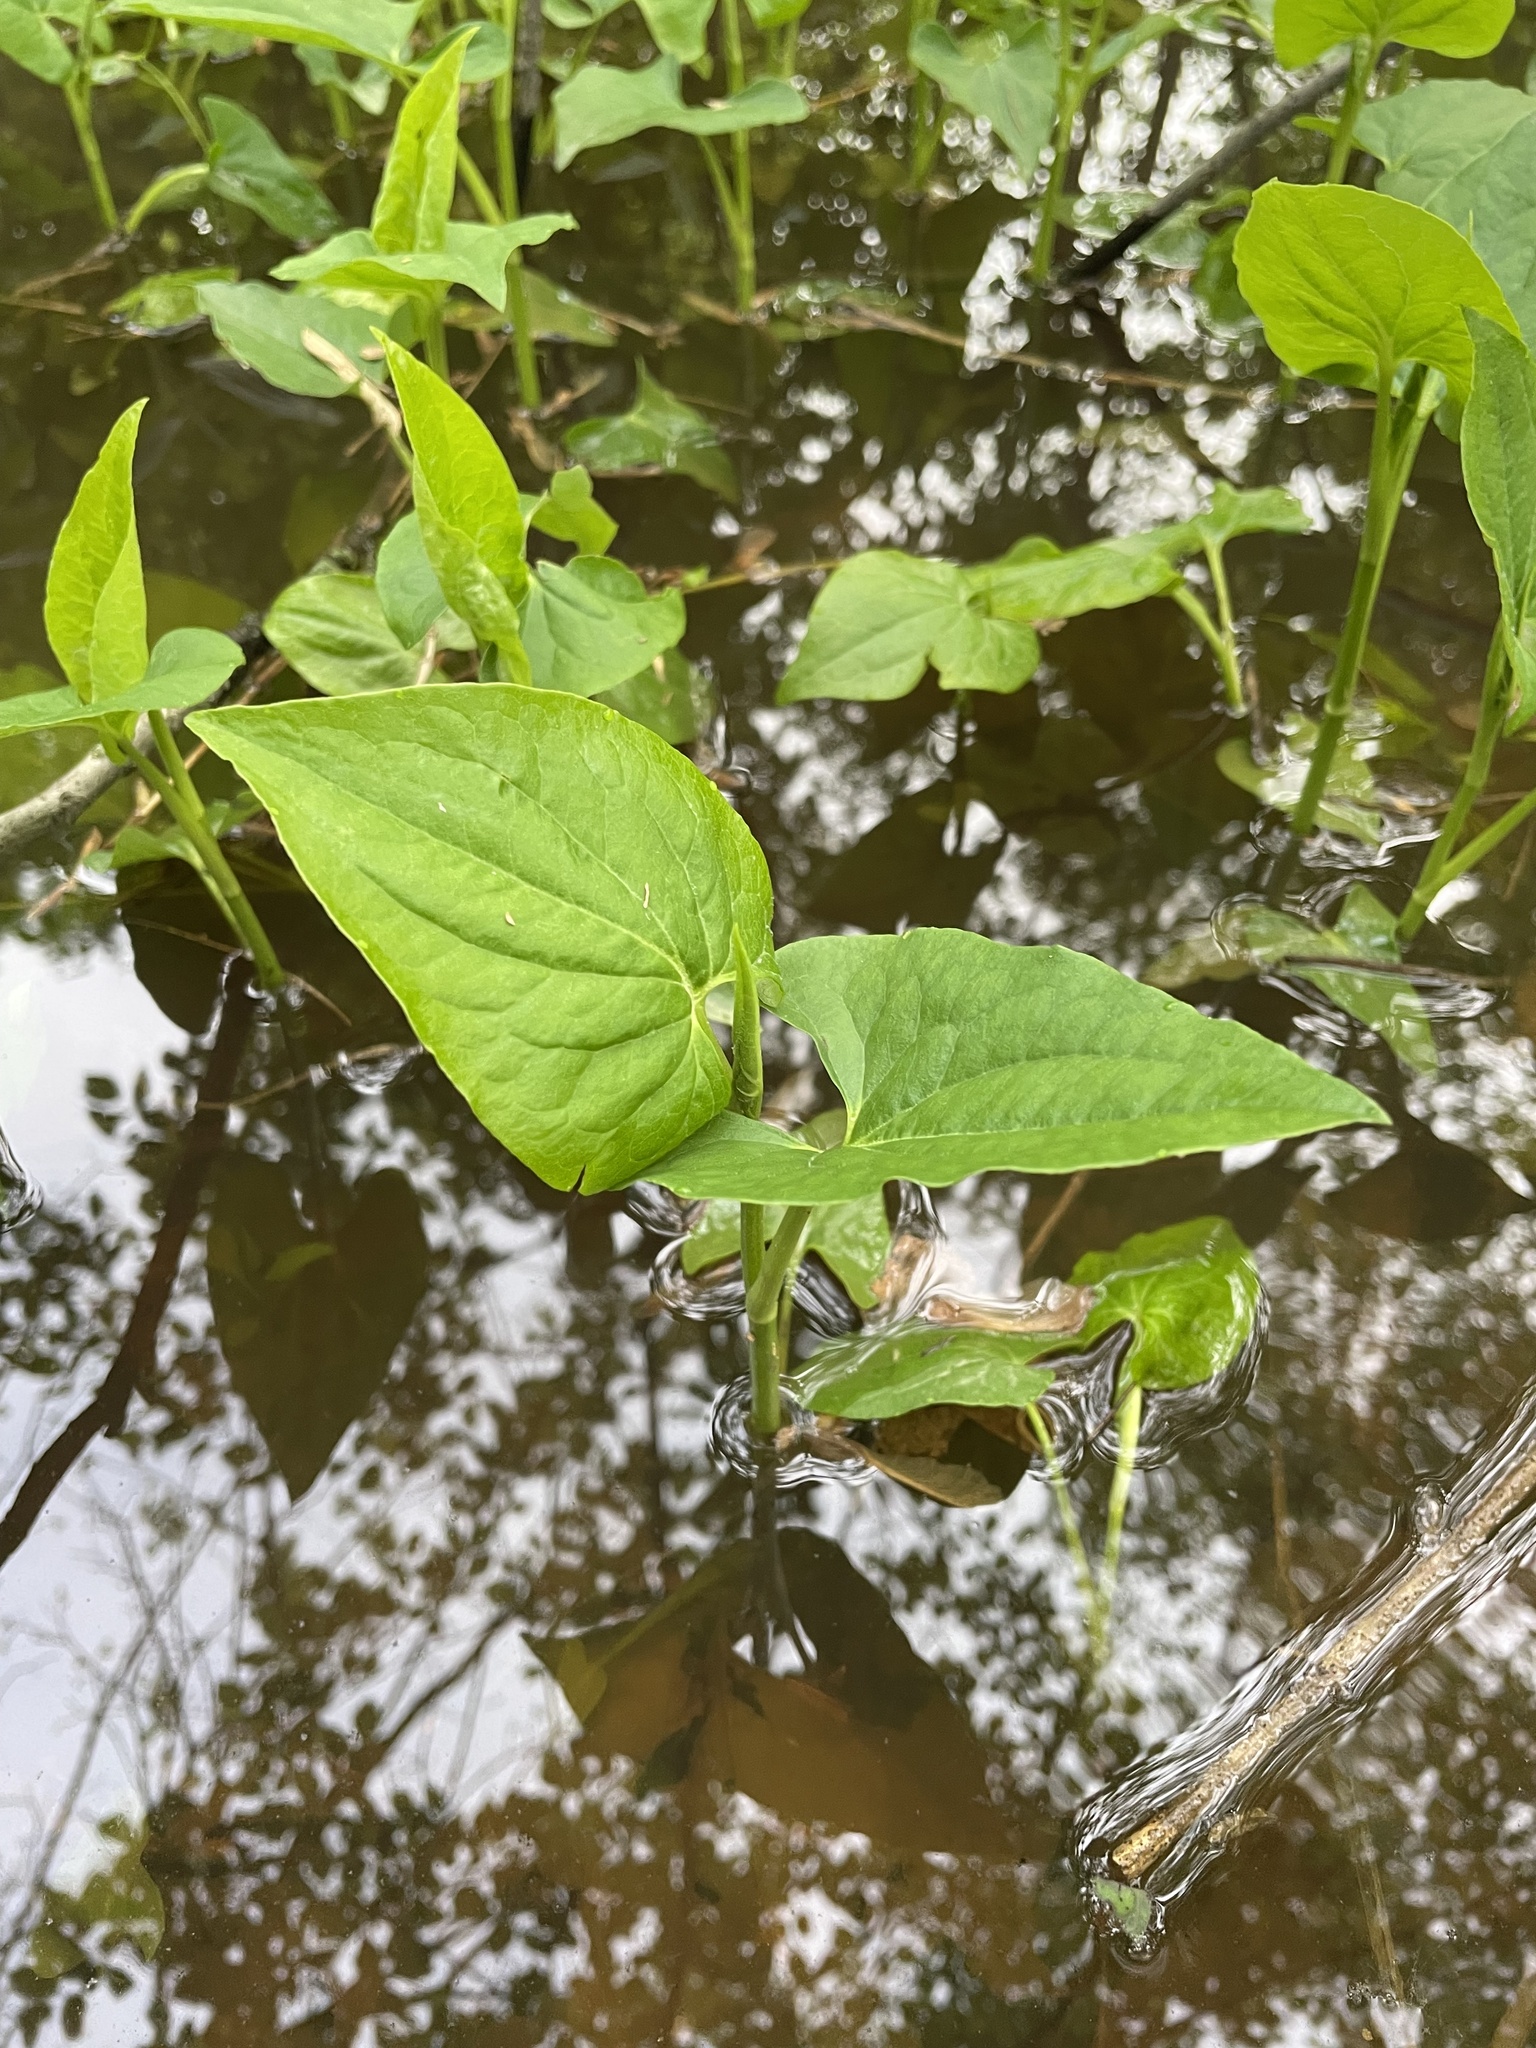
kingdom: Plantae
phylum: Tracheophyta
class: Magnoliopsida
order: Piperales
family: Saururaceae
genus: Saururus
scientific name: Saururus cernuus
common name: Lizard's-tail
